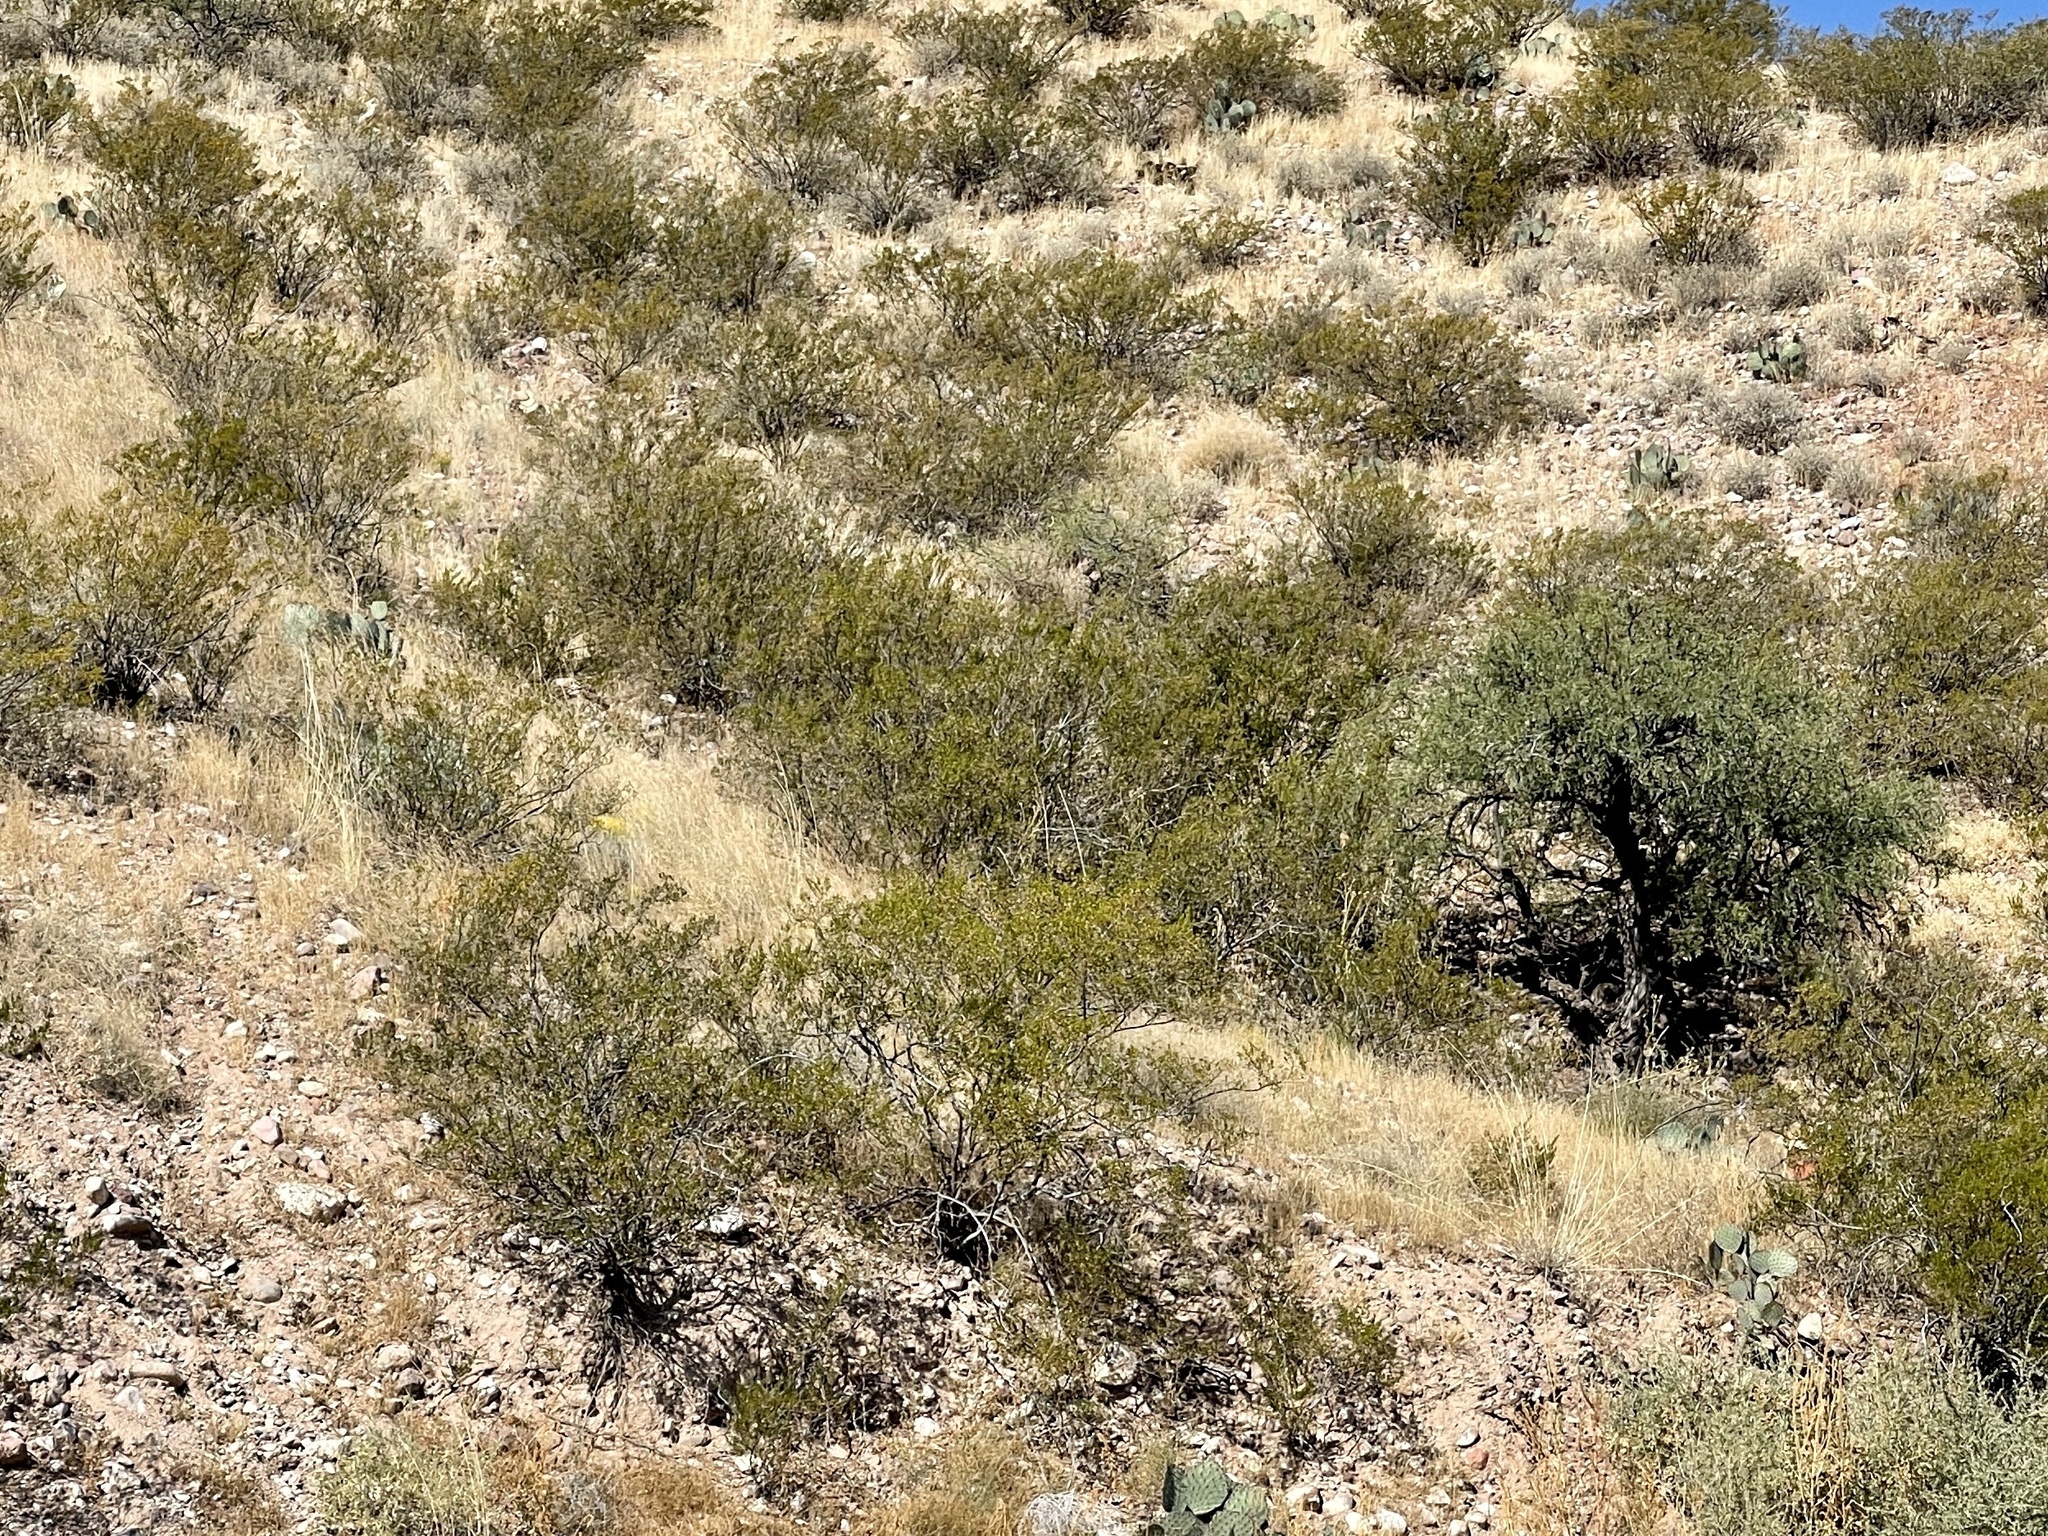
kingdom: Plantae
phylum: Tracheophyta
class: Magnoliopsida
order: Zygophyllales
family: Zygophyllaceae
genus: Larrea
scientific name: Larrea tridentata
